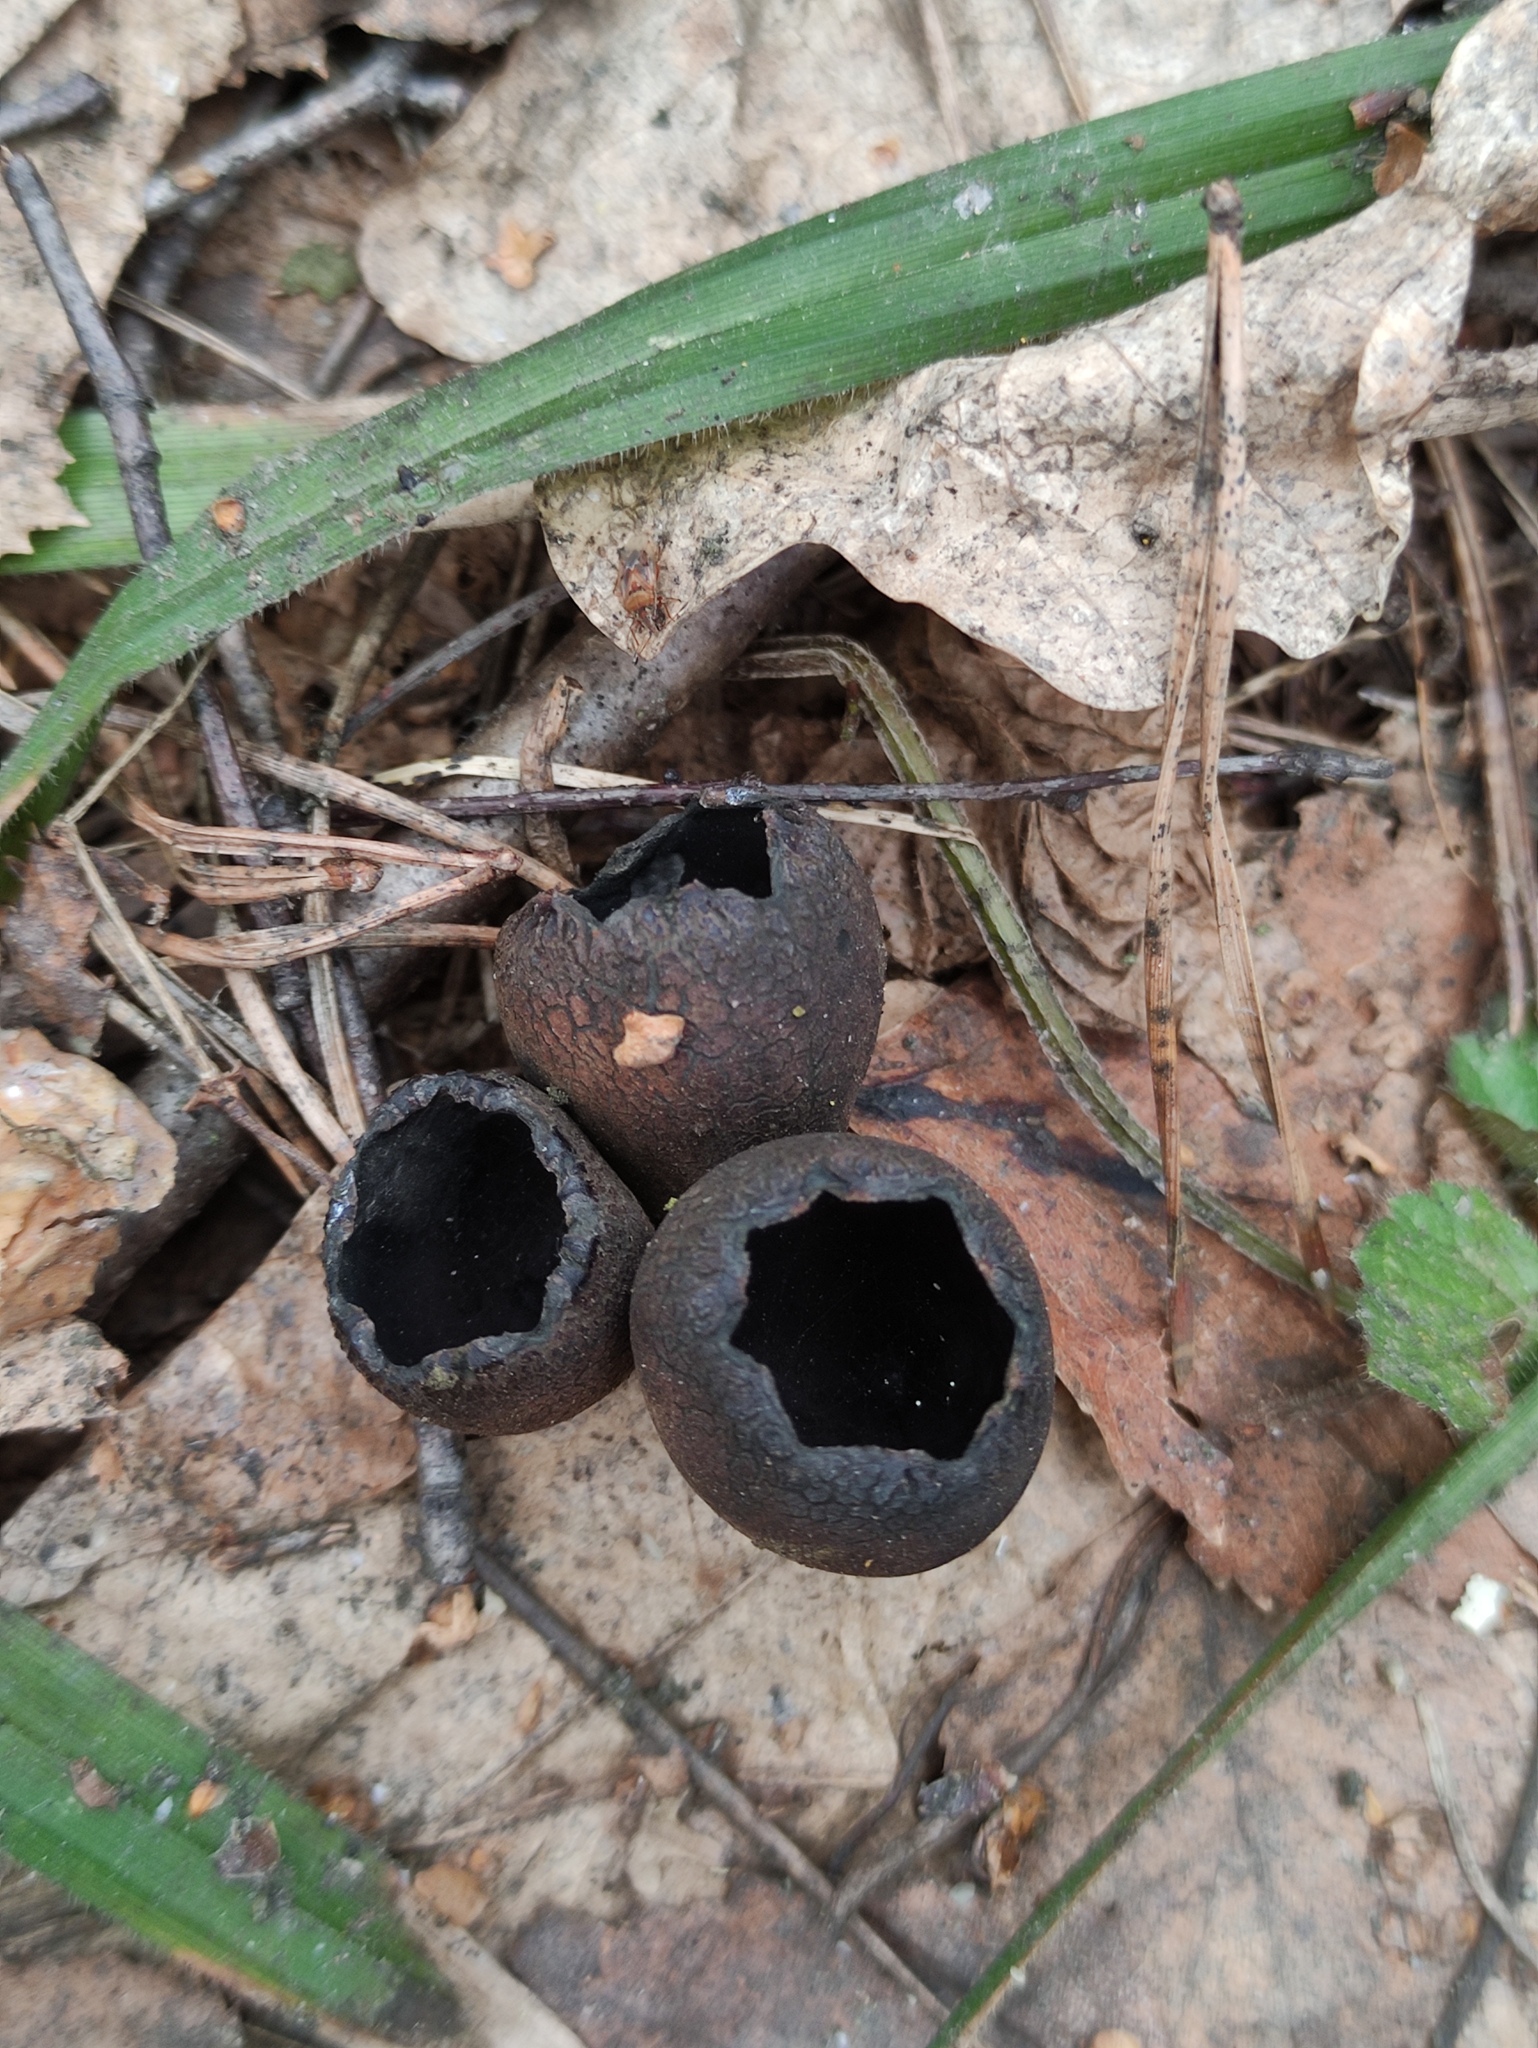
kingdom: Fungi
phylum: Ascomycota
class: Pezizomycetes
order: Pezizales
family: Sarcosomataceae
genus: Urnula
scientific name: Urnula craterium
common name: Devil's urn
